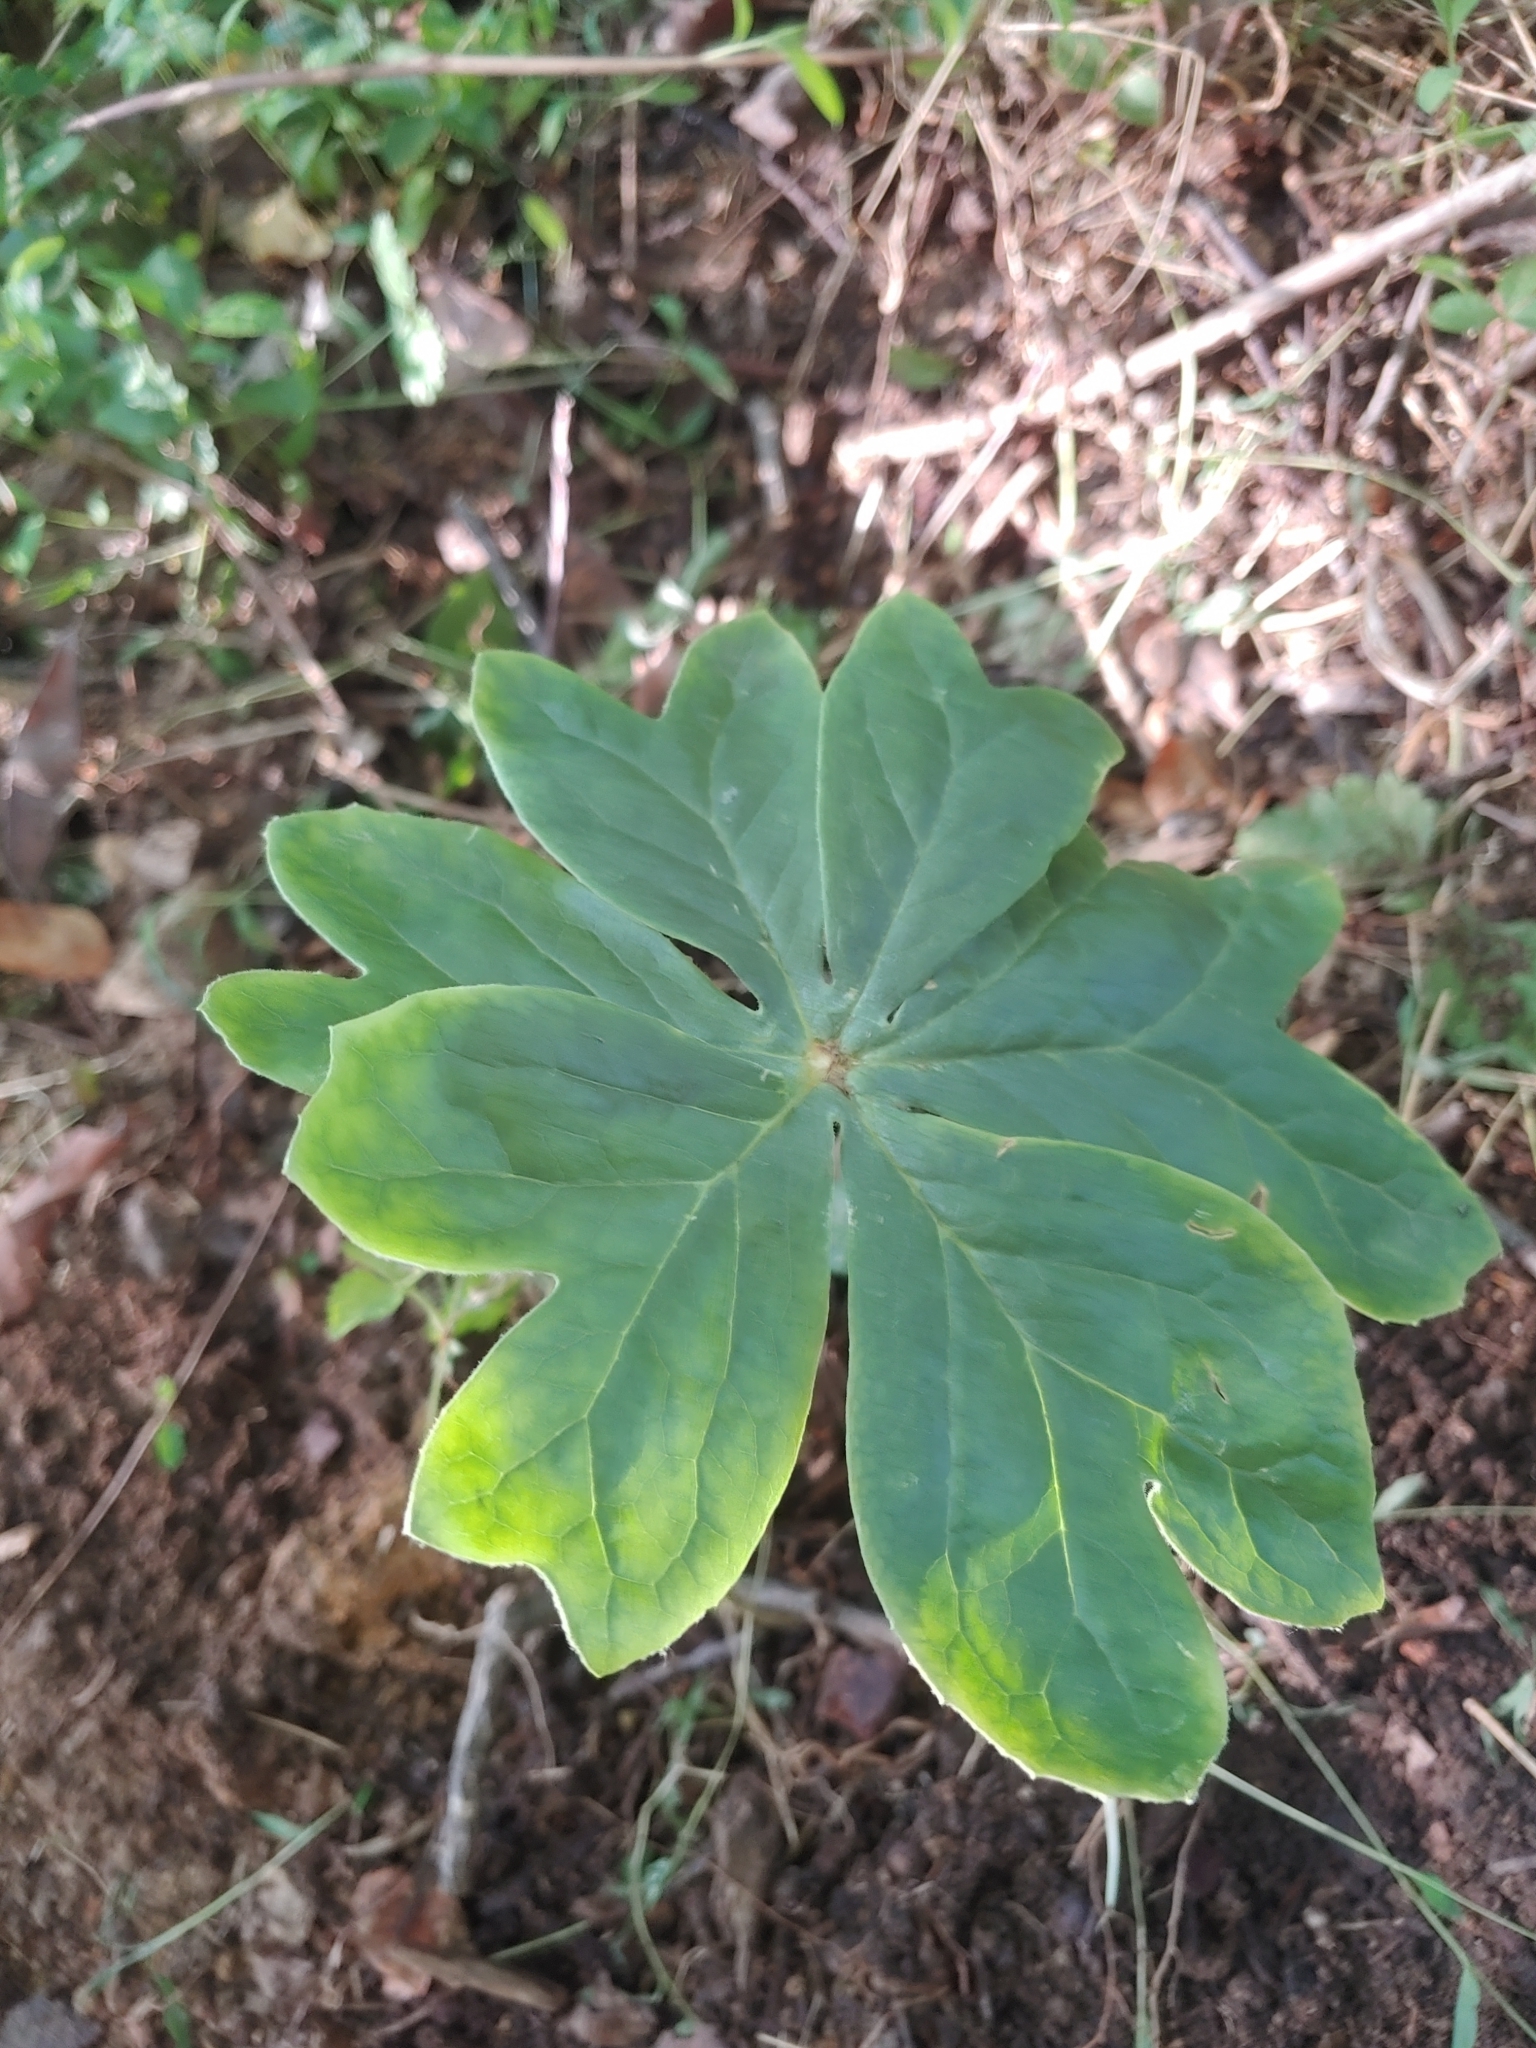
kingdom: Plantae
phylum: Tracheophyta
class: Magnoliopsida
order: Ranunculales
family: Berberidaceae
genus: Podophyllum
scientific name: Podophyllum peltatum
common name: Wild mandrake
